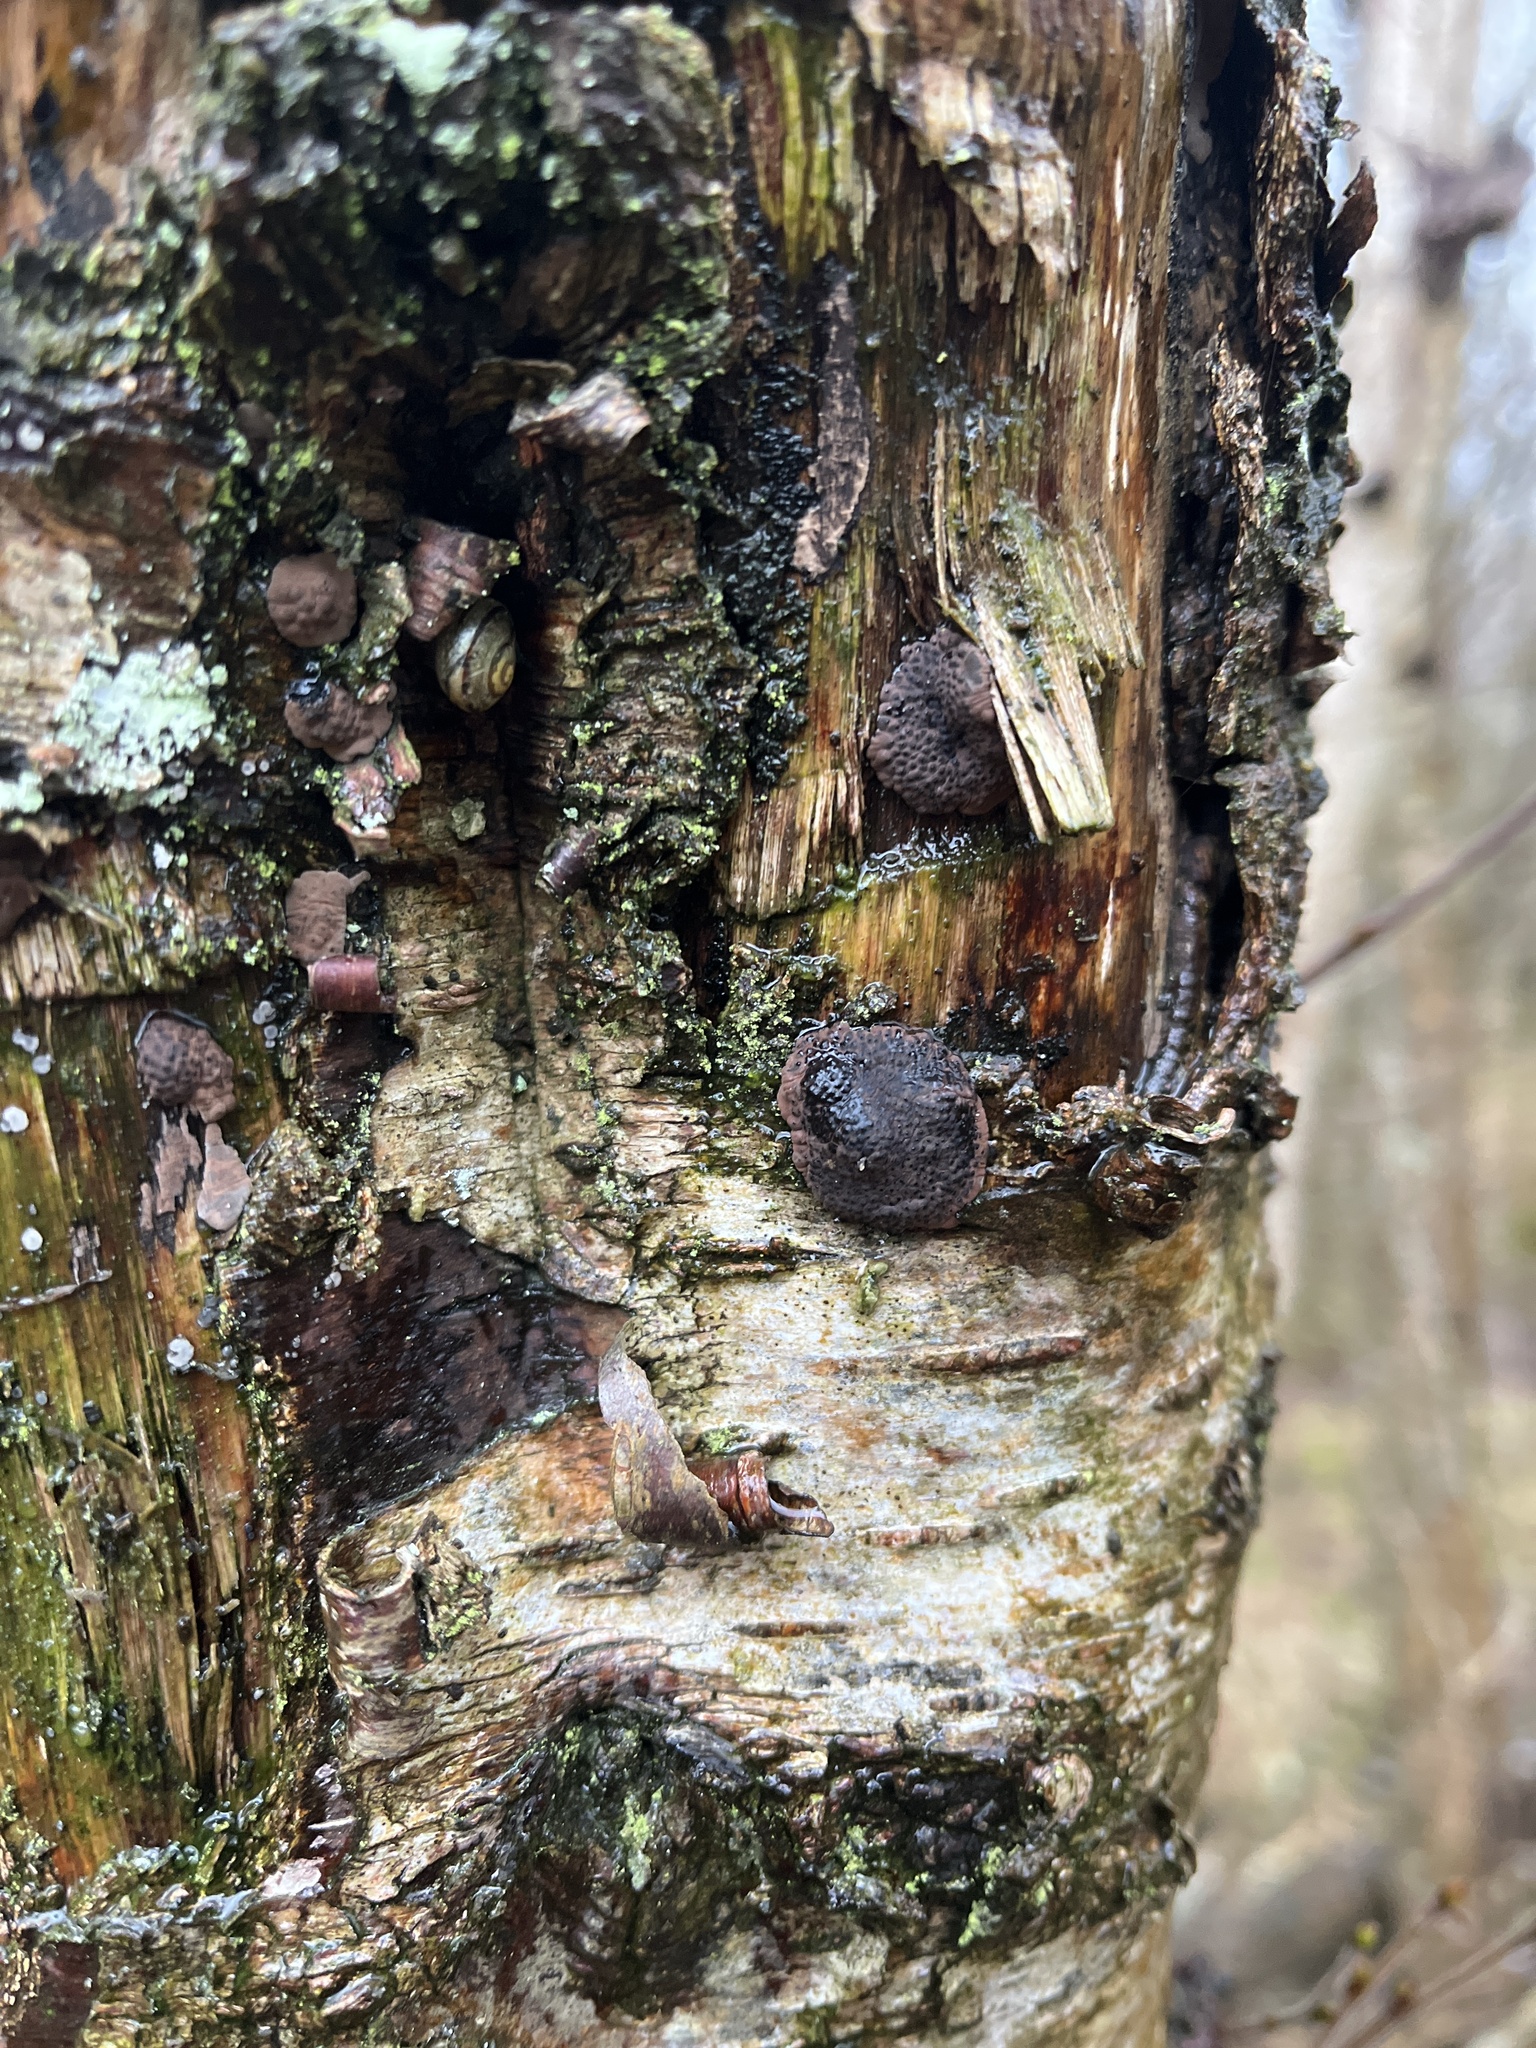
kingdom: Fungi
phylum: Ascomycota
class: Sordariomycetes
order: Xylariales
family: Hypoxylaceae
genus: Jackrogersella
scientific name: Jackrogersella multiformis
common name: Birch woodwart
